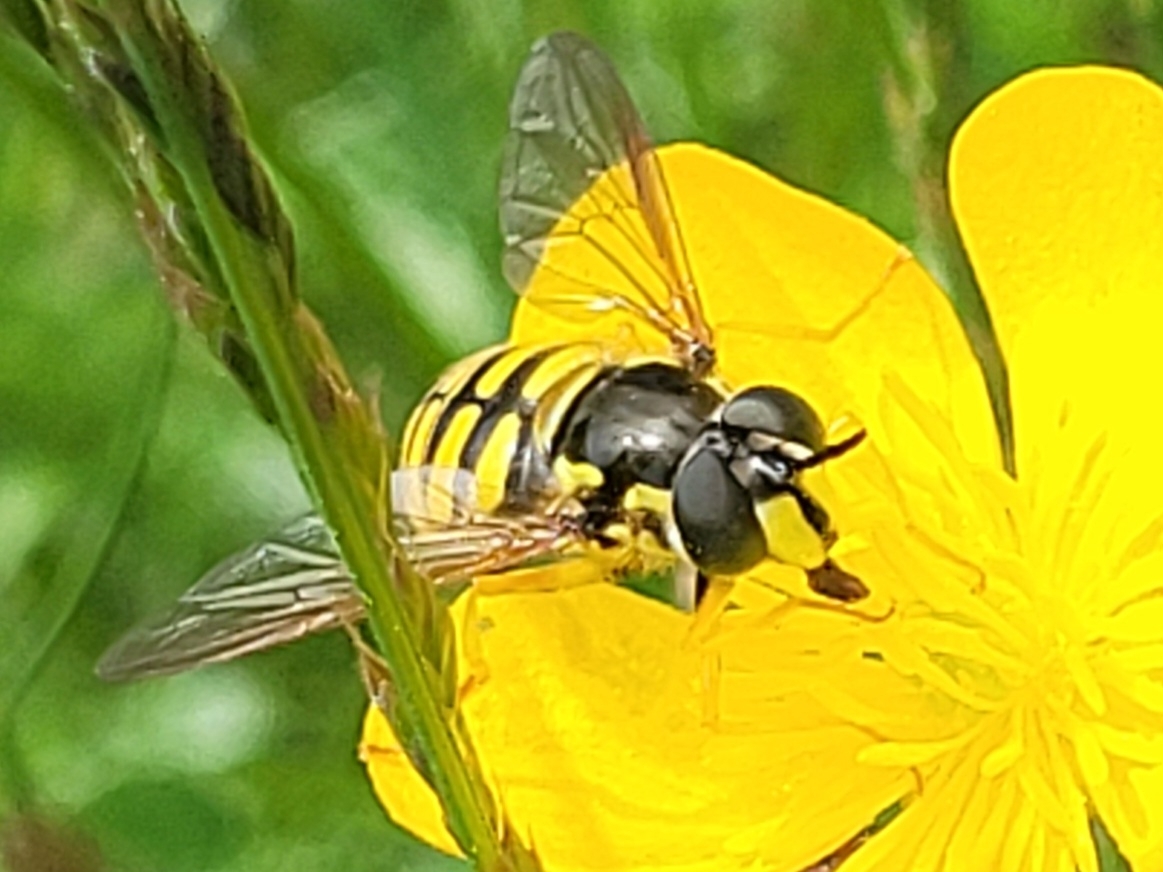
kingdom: Animalia
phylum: Arthropoda
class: Insecta
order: Diptera
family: Syrphidae
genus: Chrysotoxum
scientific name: Chrysotoxum cautum
